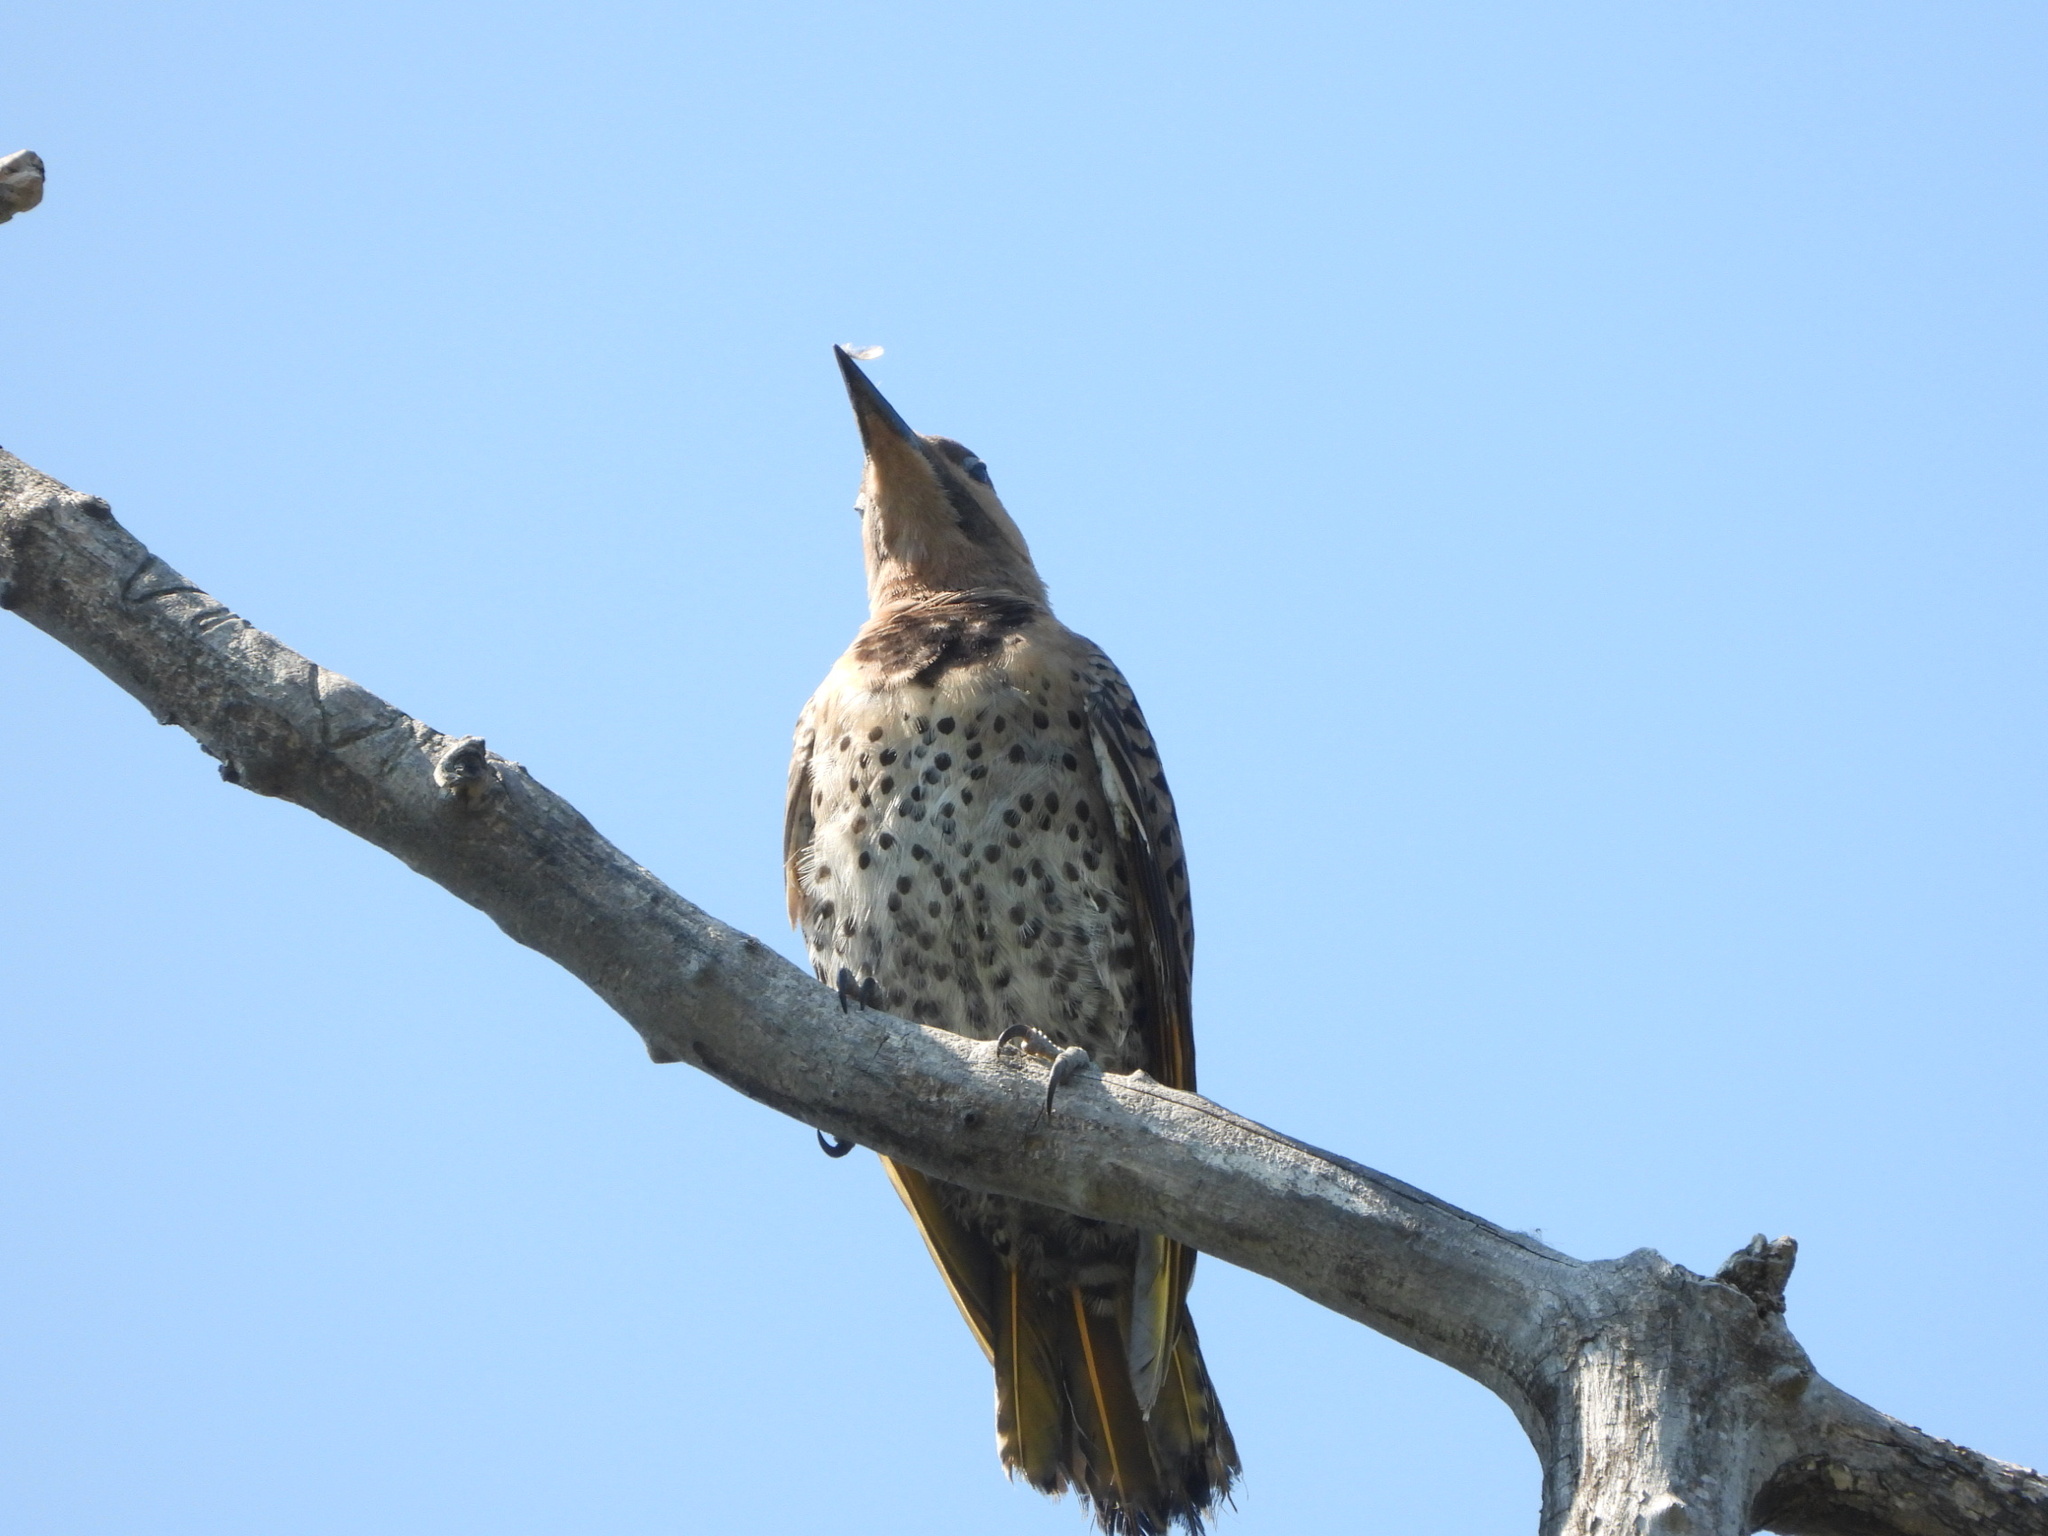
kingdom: Animalia
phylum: Chordata
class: Aves
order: Piciformes
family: Picidae
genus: Colaptes
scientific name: Colaptes auratus
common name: Northern flicker
